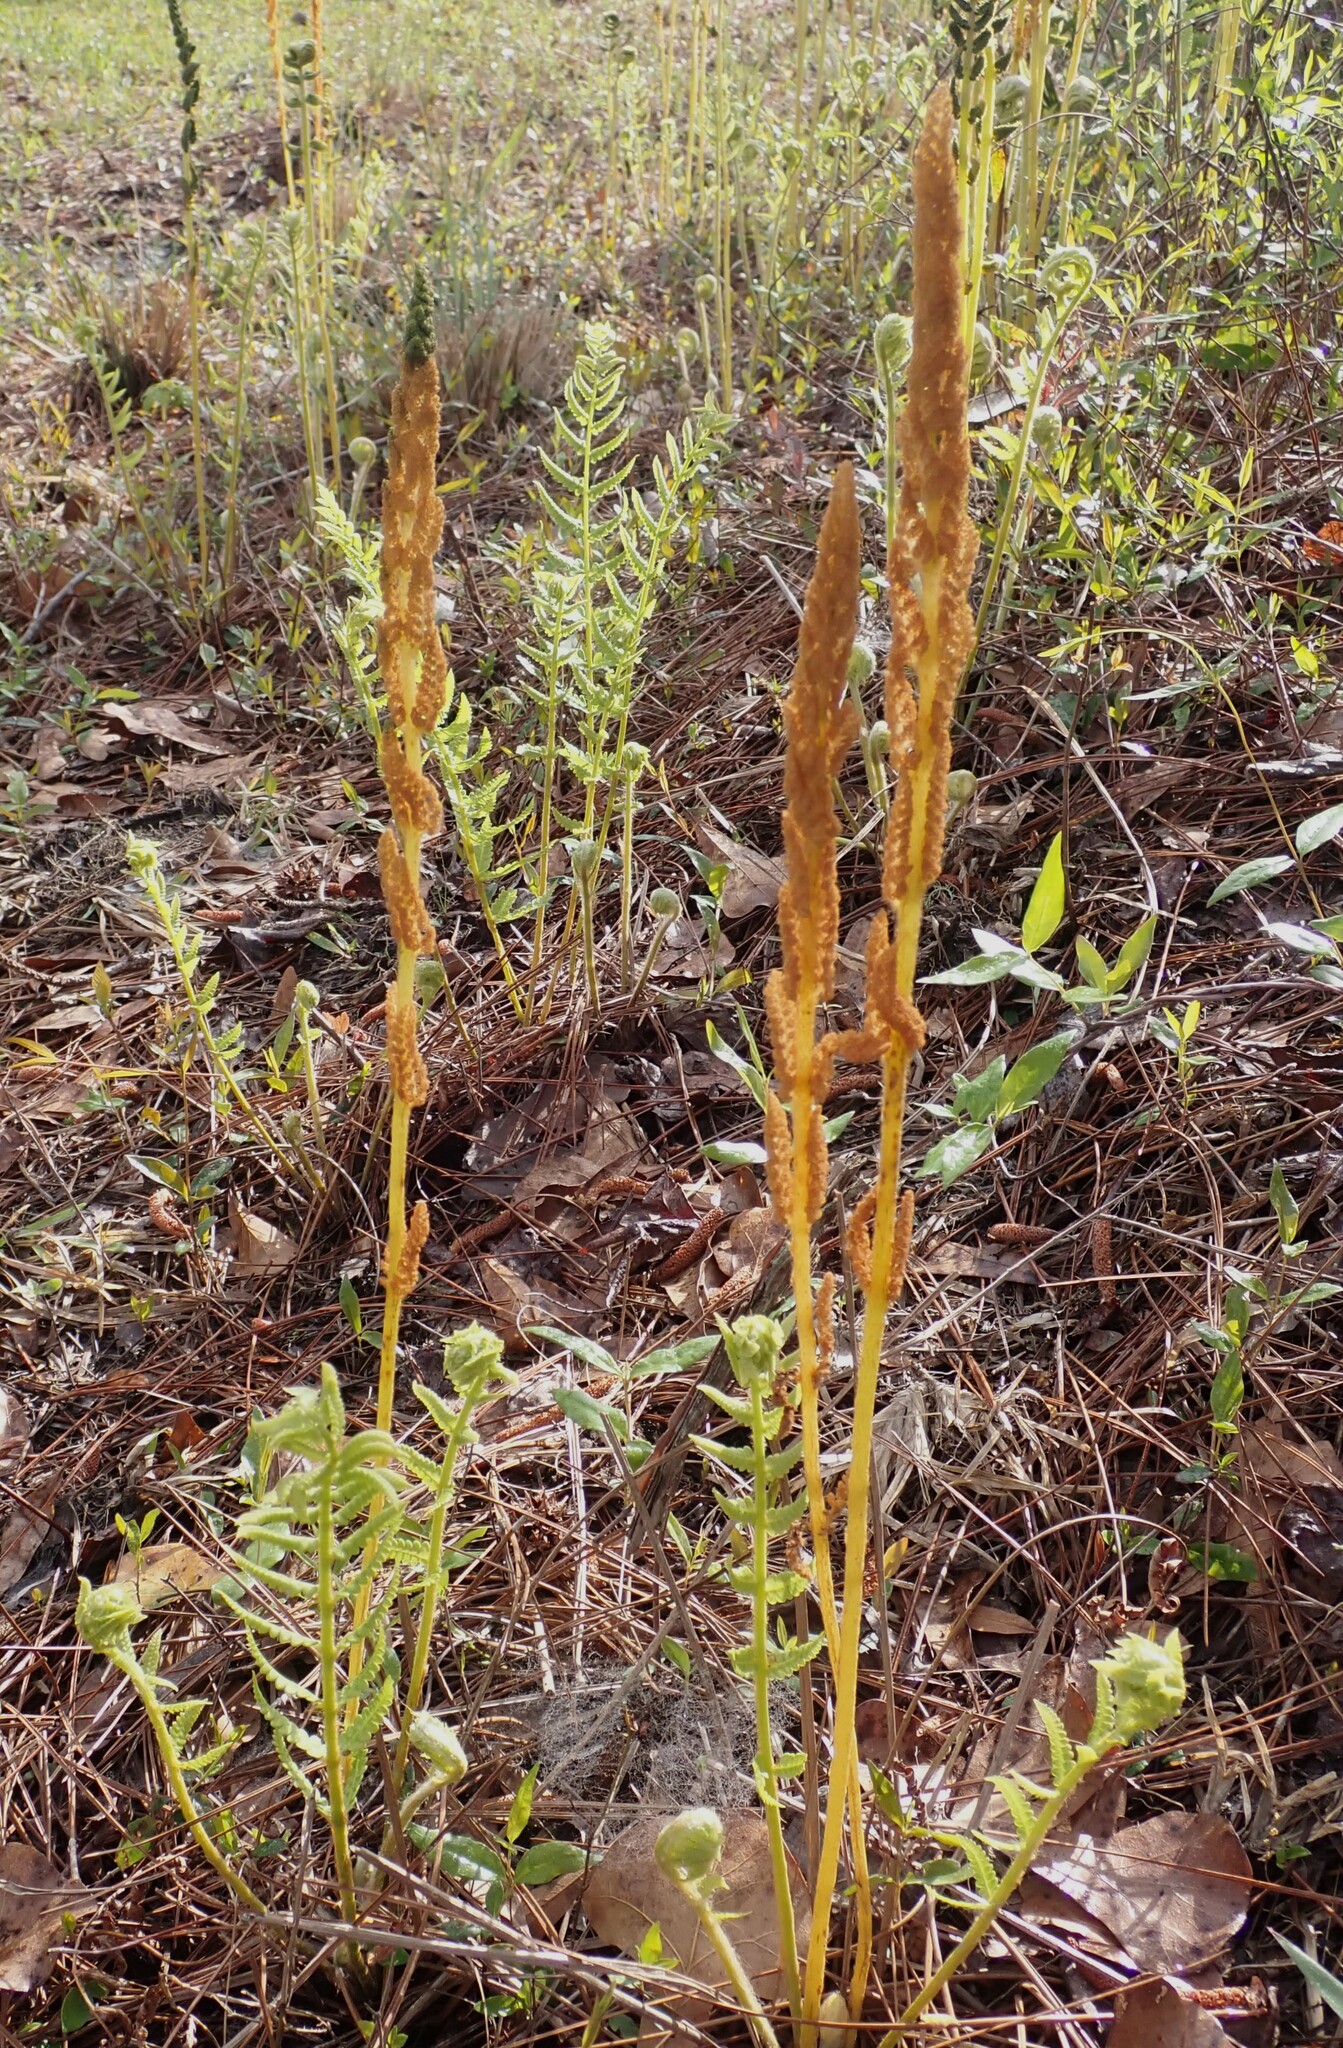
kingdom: Plantae
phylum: Tracheophyta
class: Polypodiopsida
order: Osmundales
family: Osmundaceae
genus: Osmundastrum
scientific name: Osmundastrum cinnamomeum
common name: Cinnamon fern
